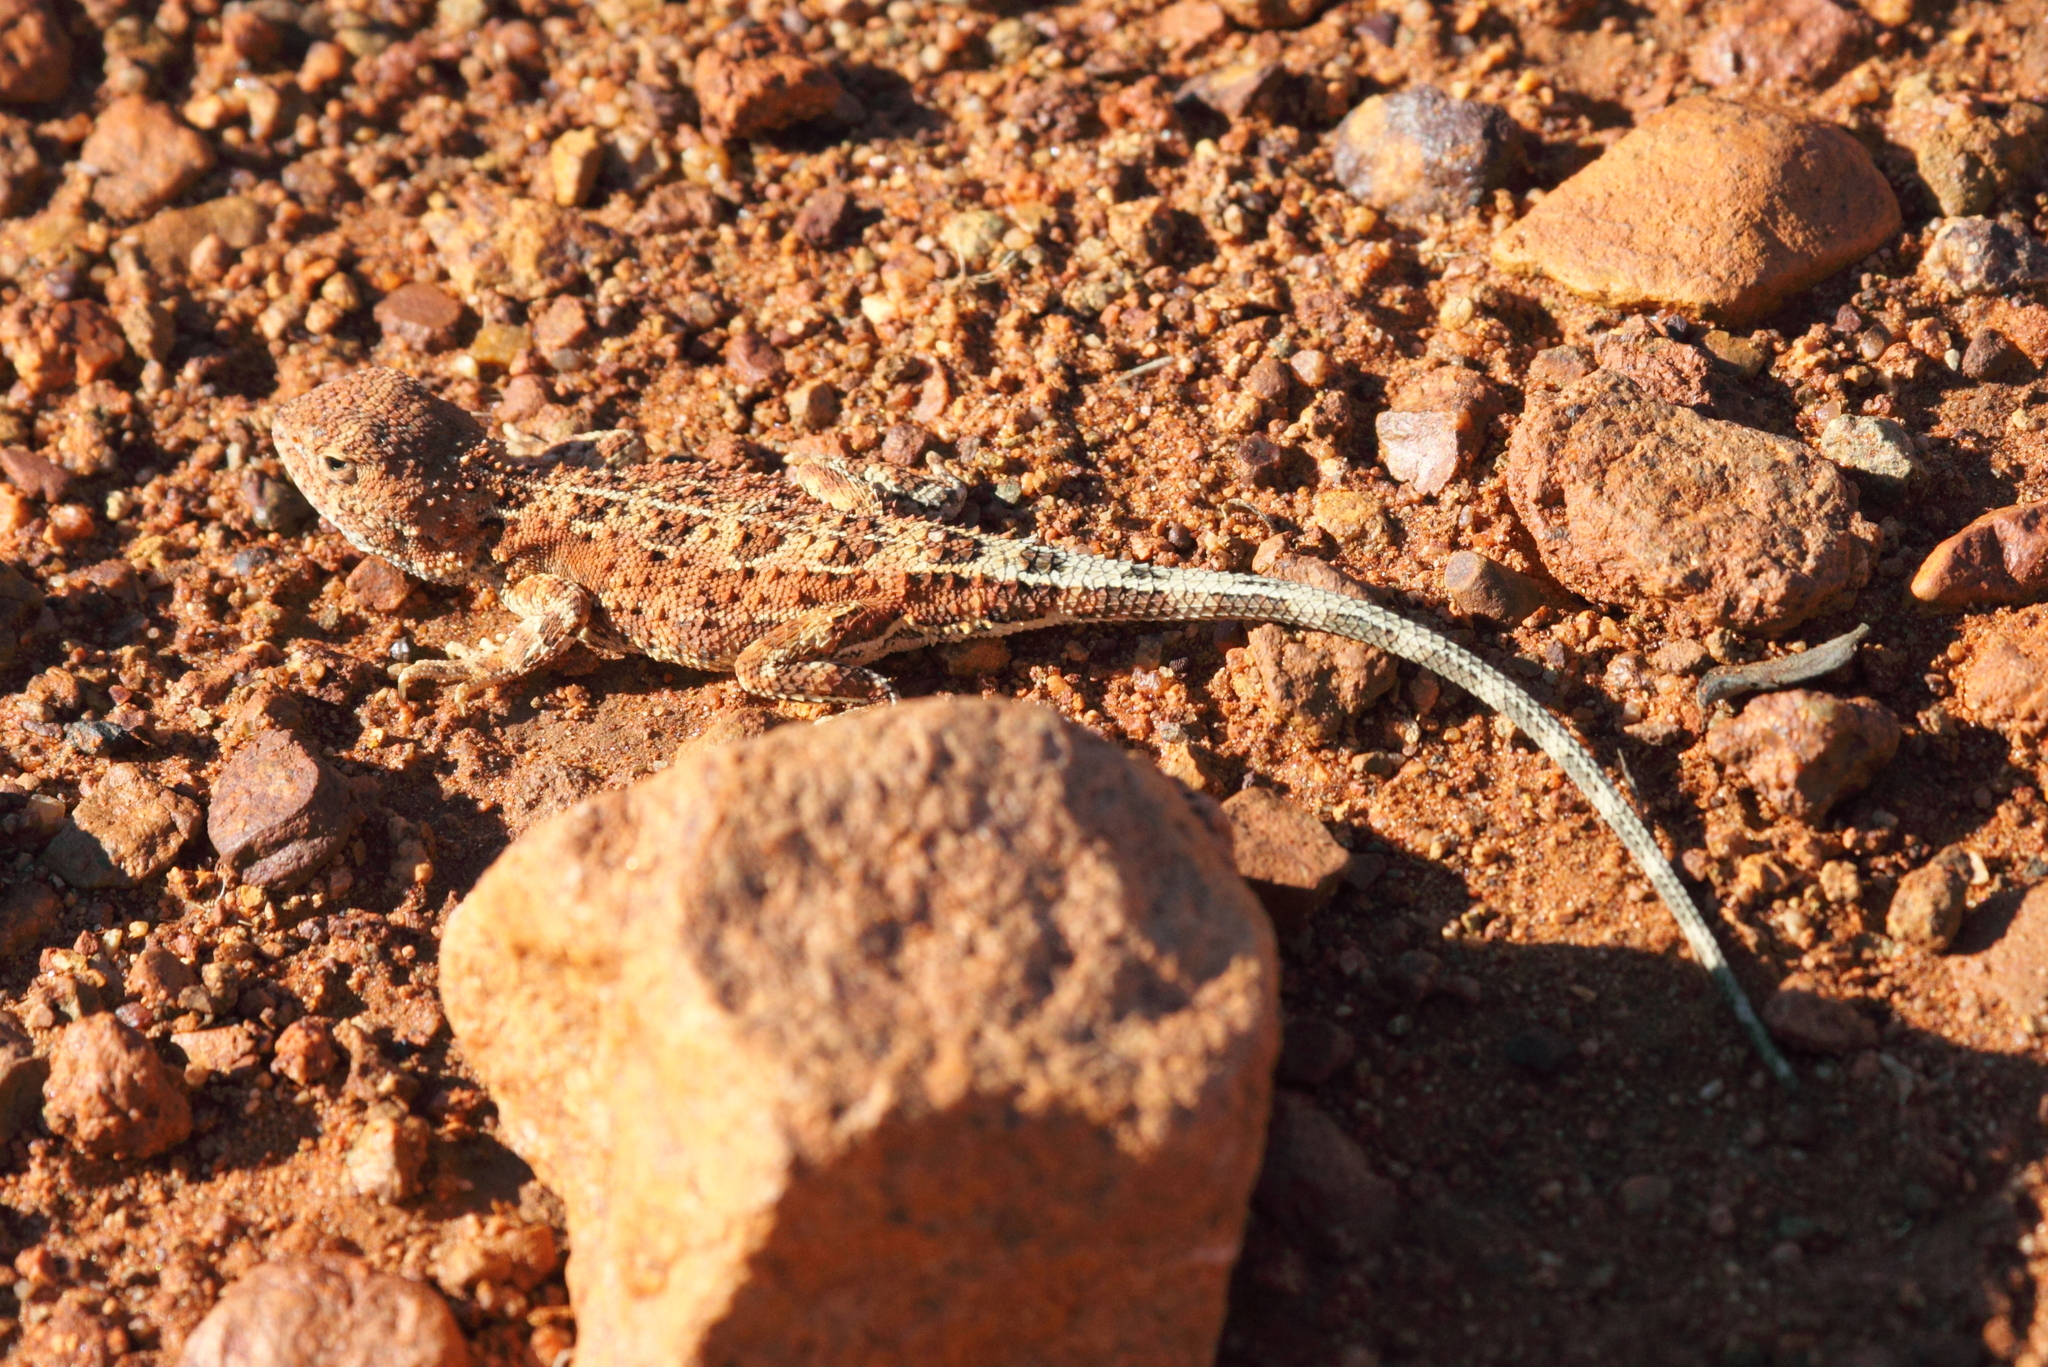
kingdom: Animalia
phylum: Chordata
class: Squamata
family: Agamidae
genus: Tympanocryptis
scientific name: Tympanocryptis centralis
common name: Central australian earless dragon
